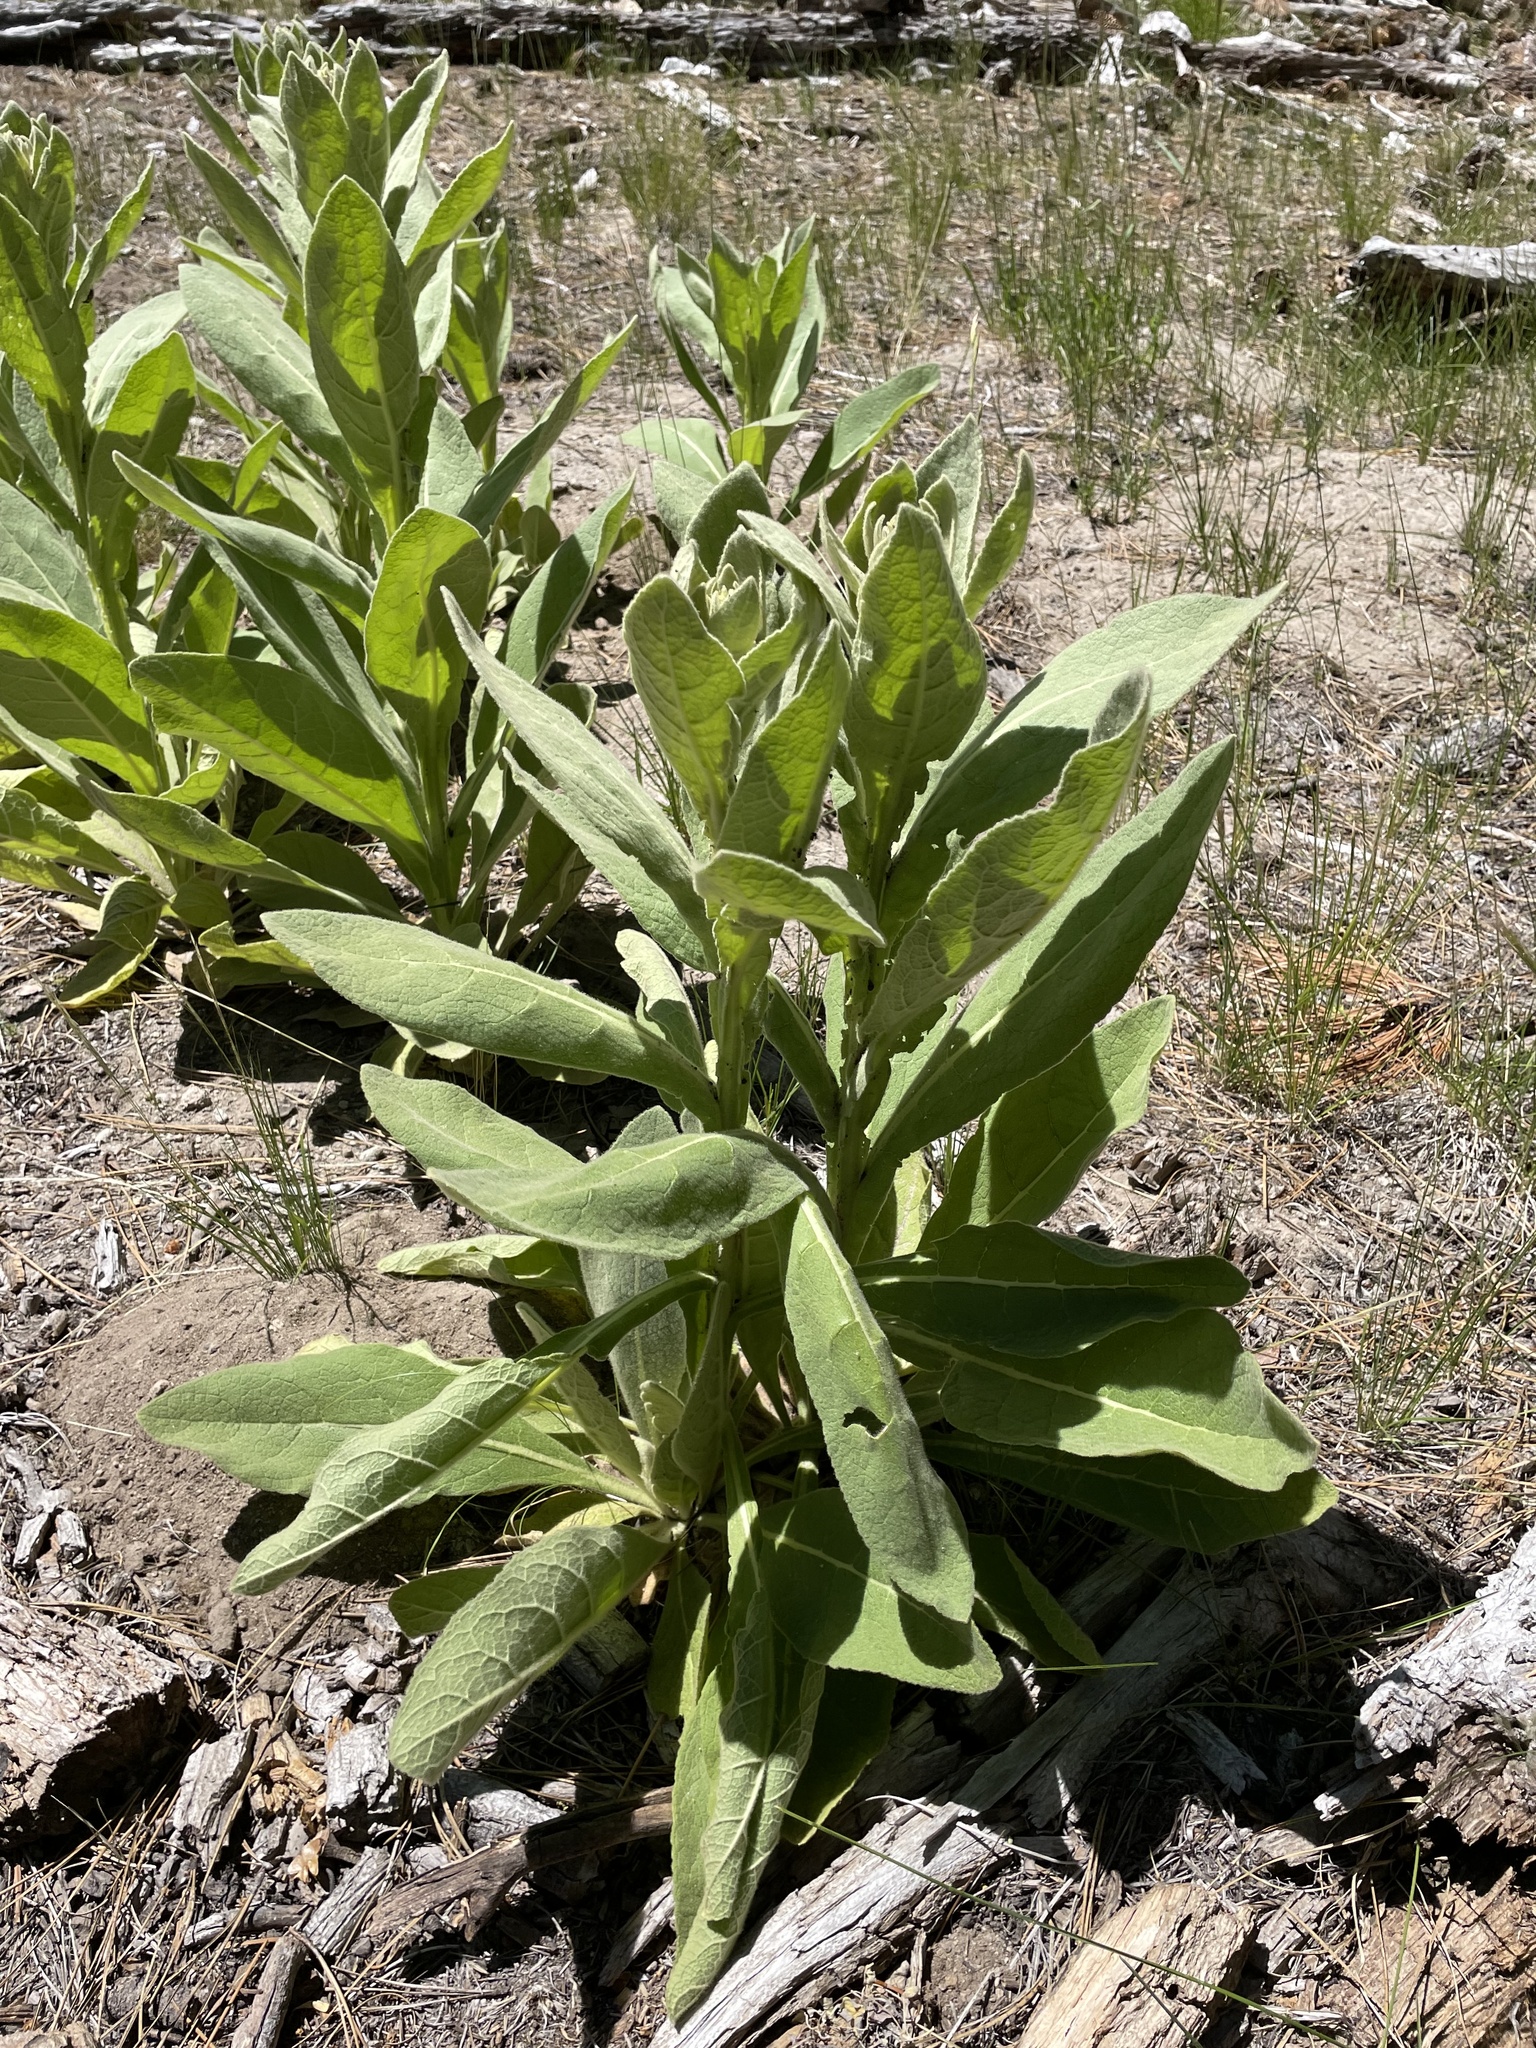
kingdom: Plantae
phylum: Tracheophyta
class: Magnoliopsida
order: Lamiales
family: Scrophulariaceae
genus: Verbascum
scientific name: Verbascum thapsus
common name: Common mullein
